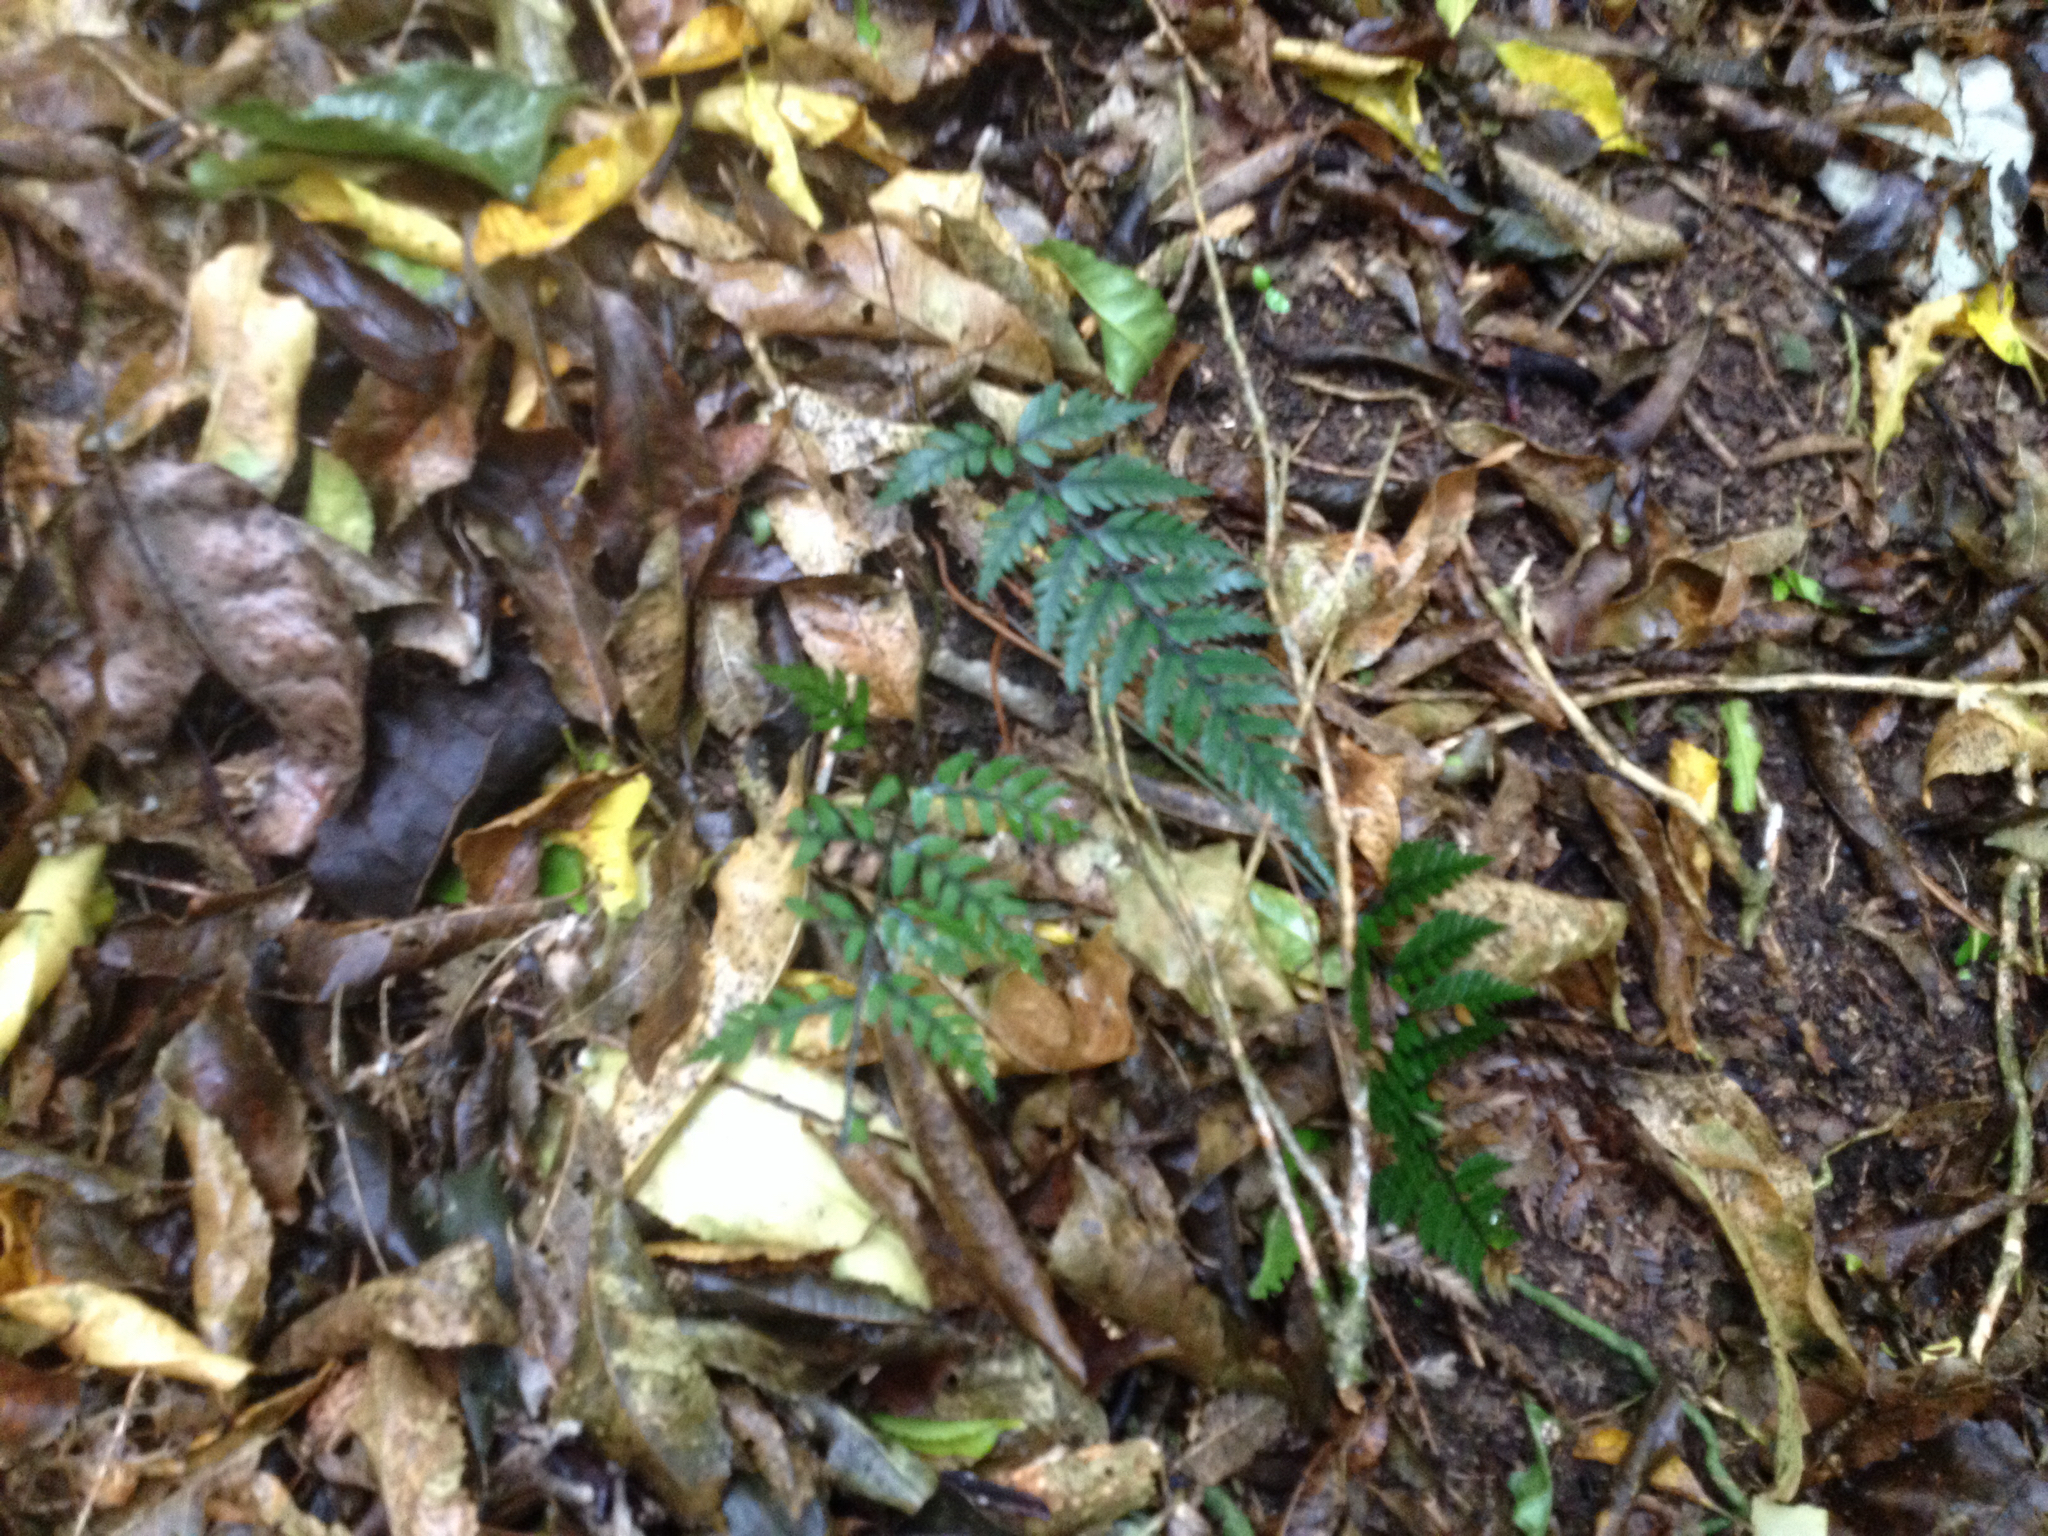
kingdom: Plantae
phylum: Tracheophyta
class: Polypodiopsida
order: Polypodiales
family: Dryopteridaceae
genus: Polystichum
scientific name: Polystichum neozelandicum
